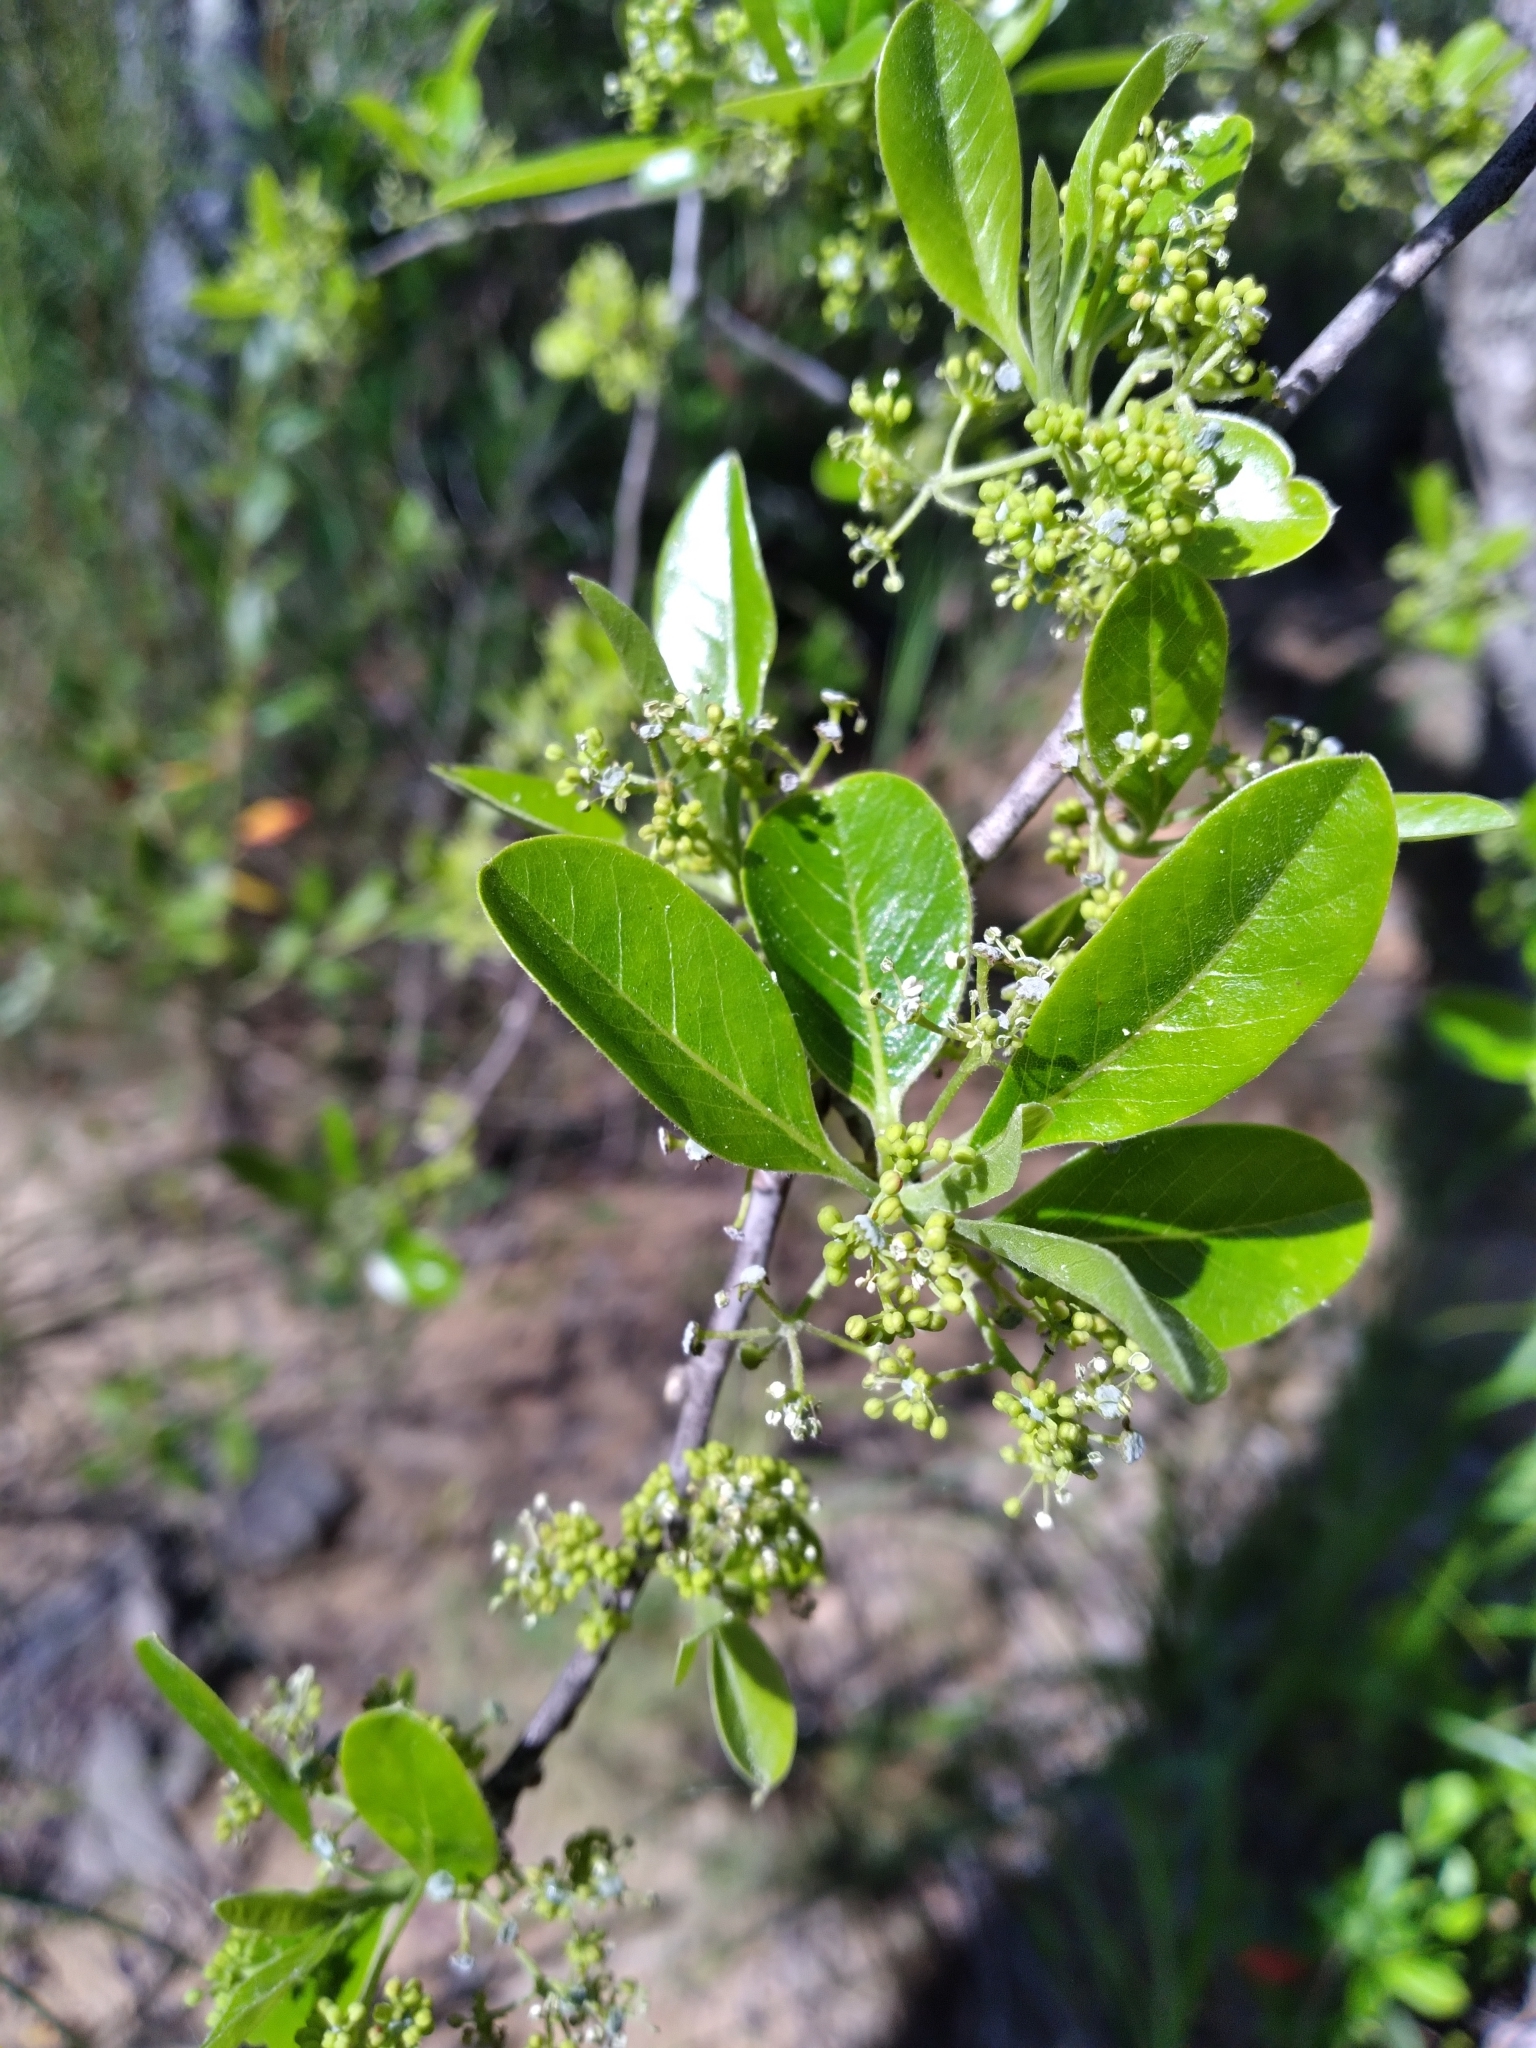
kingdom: Plantae
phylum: Tracheophyta
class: Magnoliopsida
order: Cornales
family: Nyssaceae
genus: Nyssa
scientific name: Nyssa biflora
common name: Swamp blackgum
